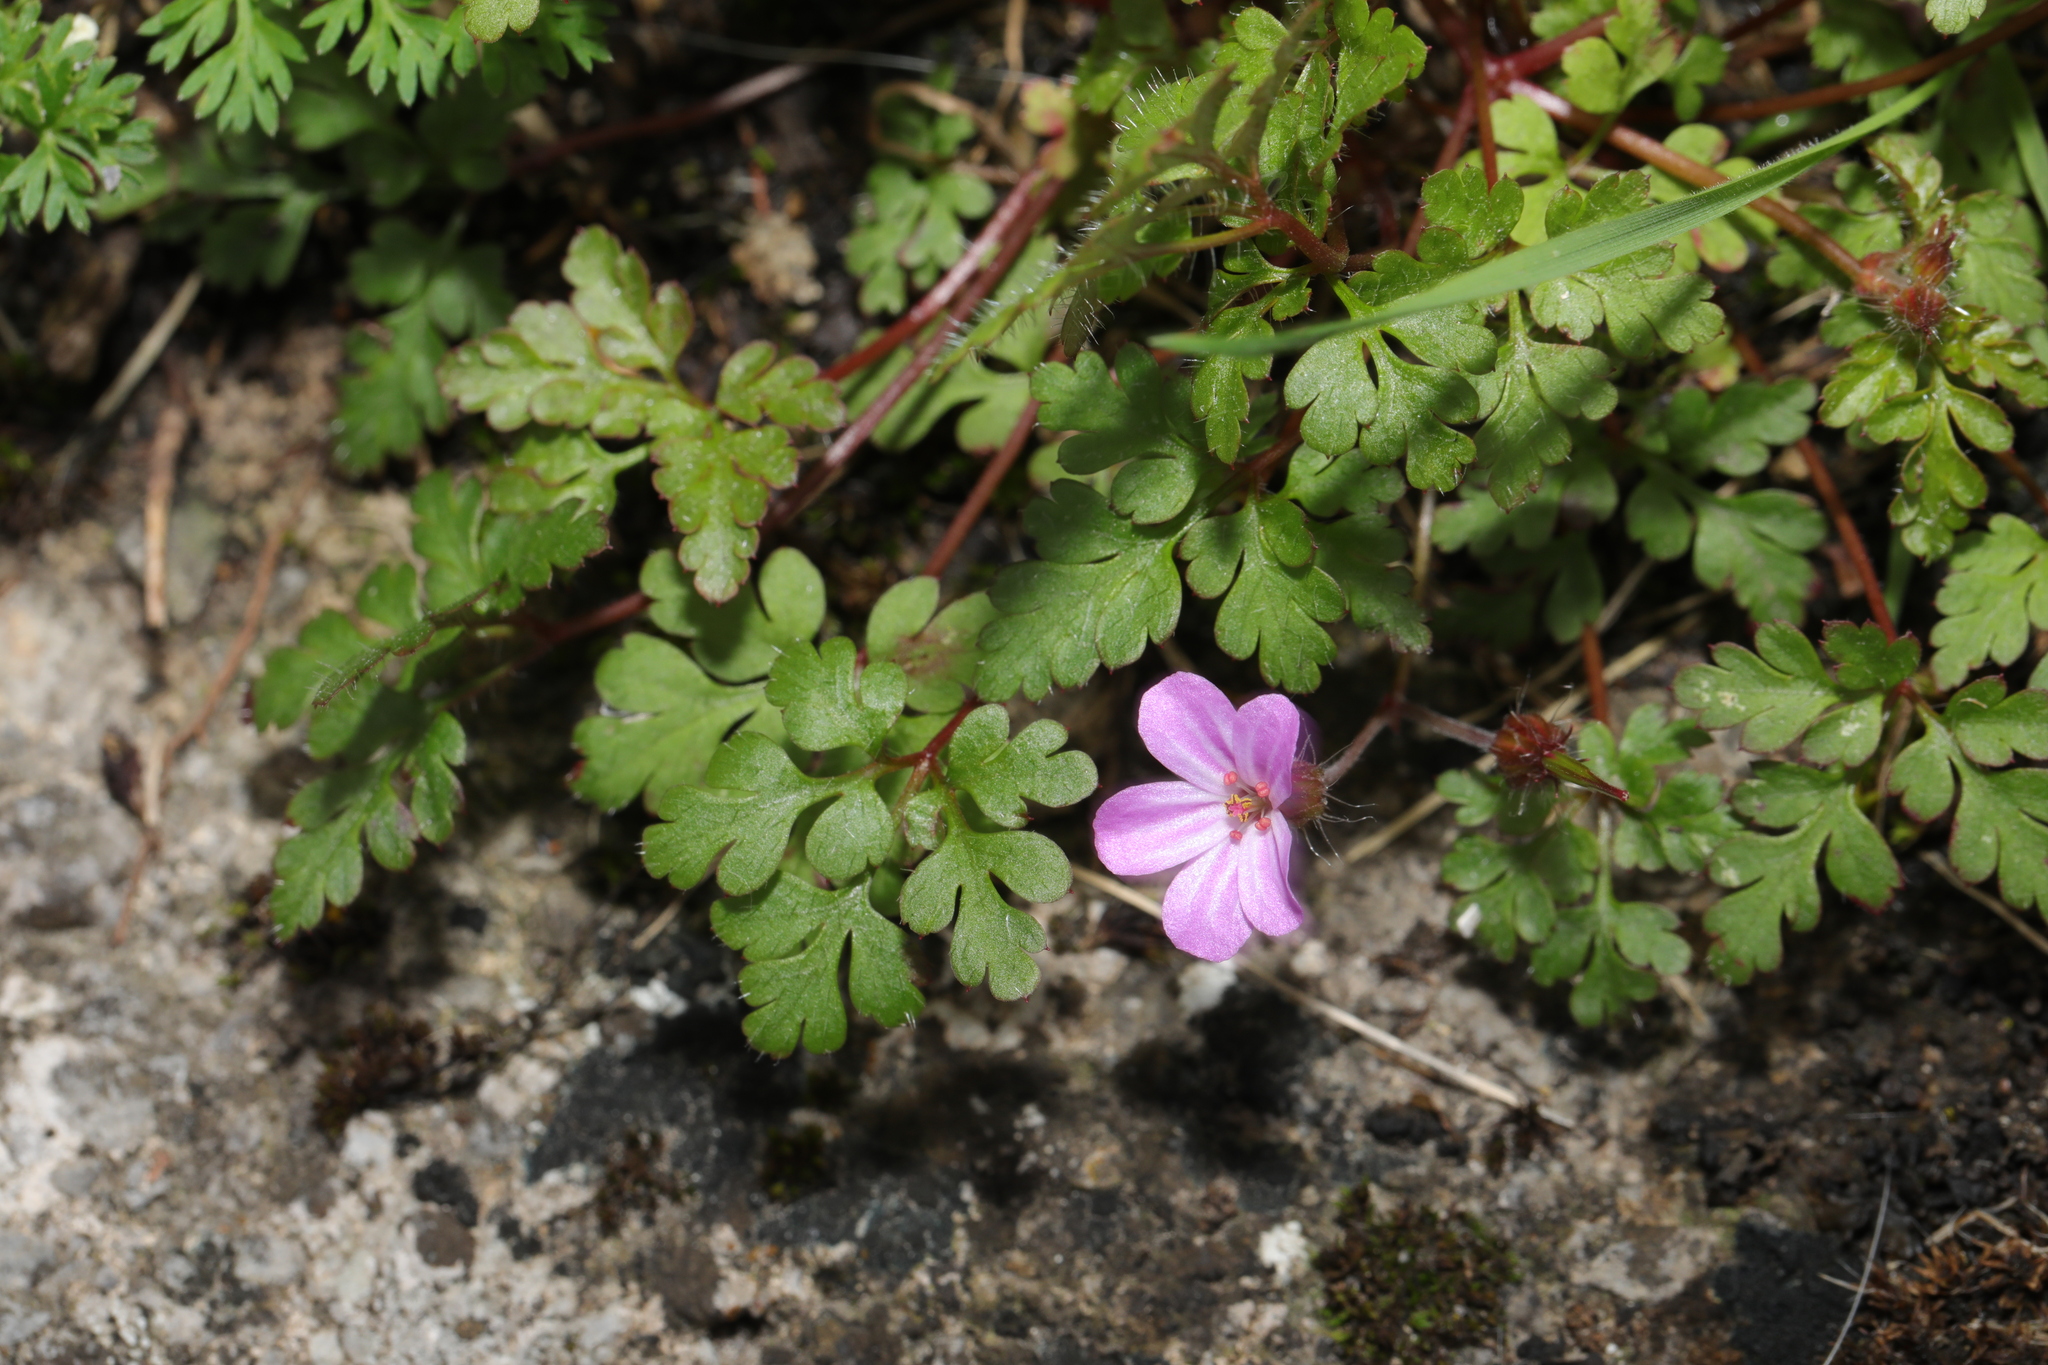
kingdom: Plantae
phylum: Tracheophyta
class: Magnoliopsida
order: Geraniales
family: Geraniaceae
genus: Geranium
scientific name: Geranium robertianum
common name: Herb-robert
